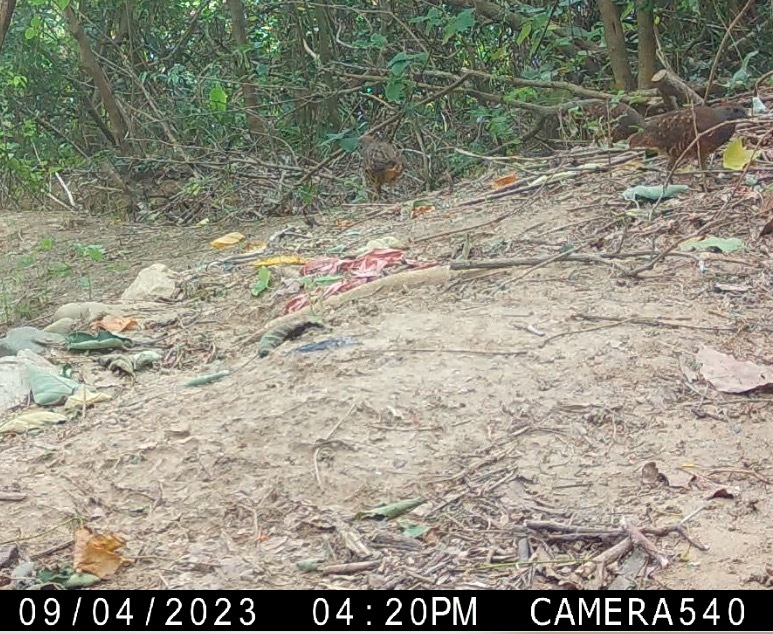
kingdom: Animalia
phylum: Chordata
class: Aves
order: Galliformes
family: Phasianidae
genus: Bambusicola
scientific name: Bambusicola sonorivox
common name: Taiwan bamboo-partridge
